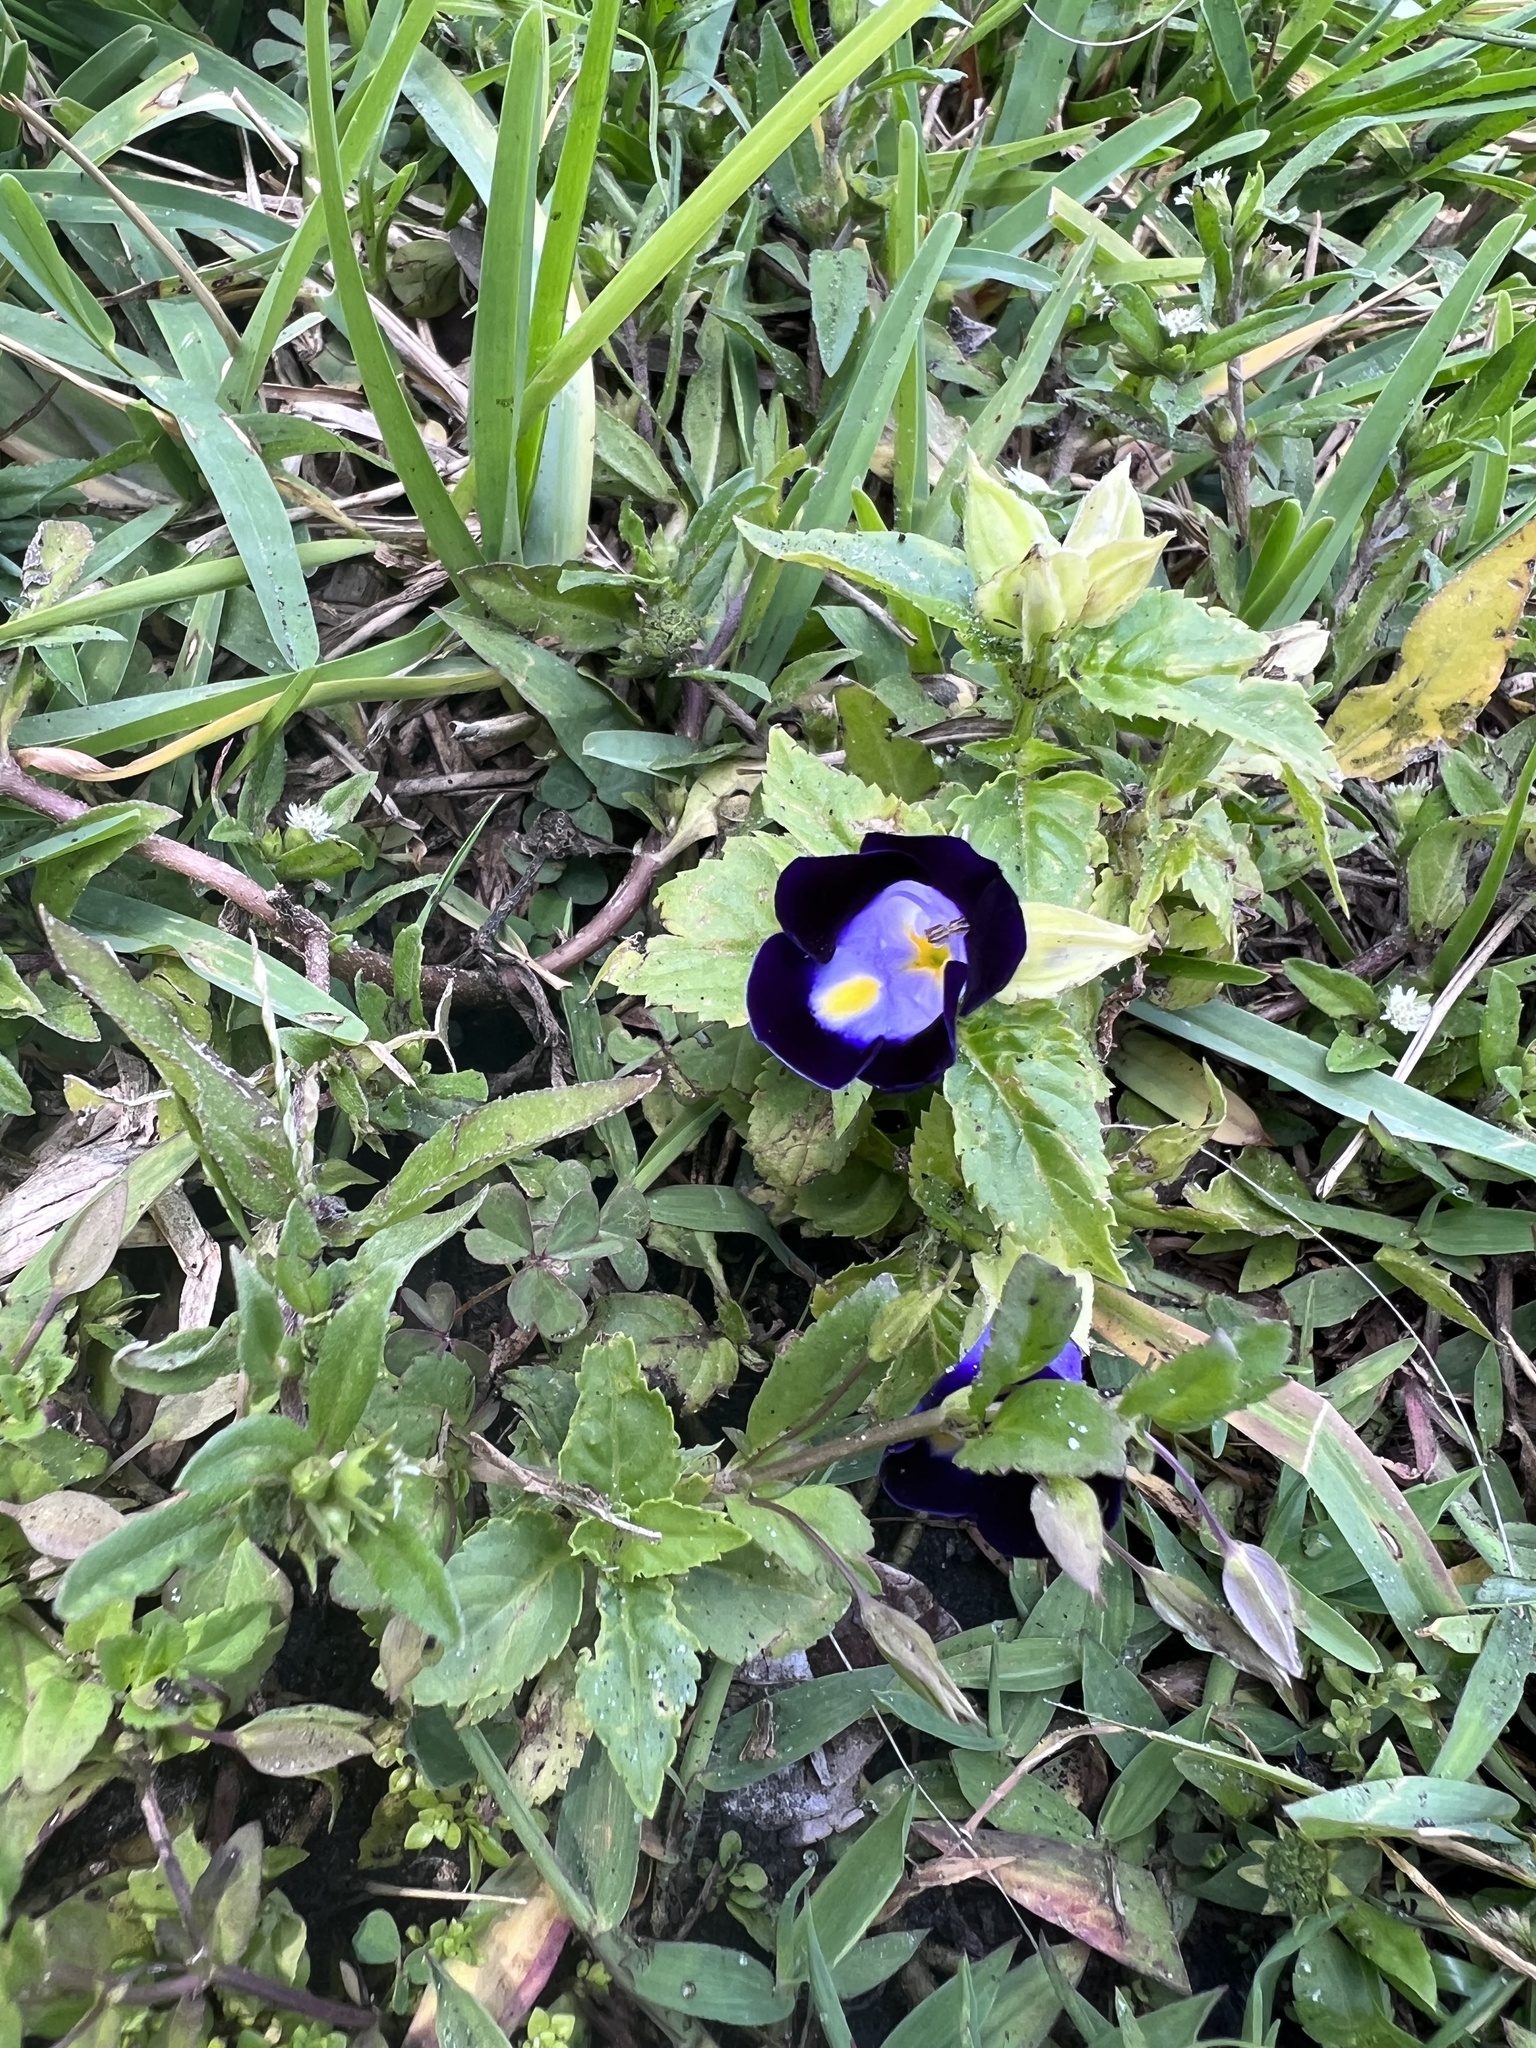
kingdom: Plantae
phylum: Tracheophyta
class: Magnoliopsida
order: Lamiales
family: Linderniaceae
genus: Torenia
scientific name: Torenia fournieri
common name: Bluewings
